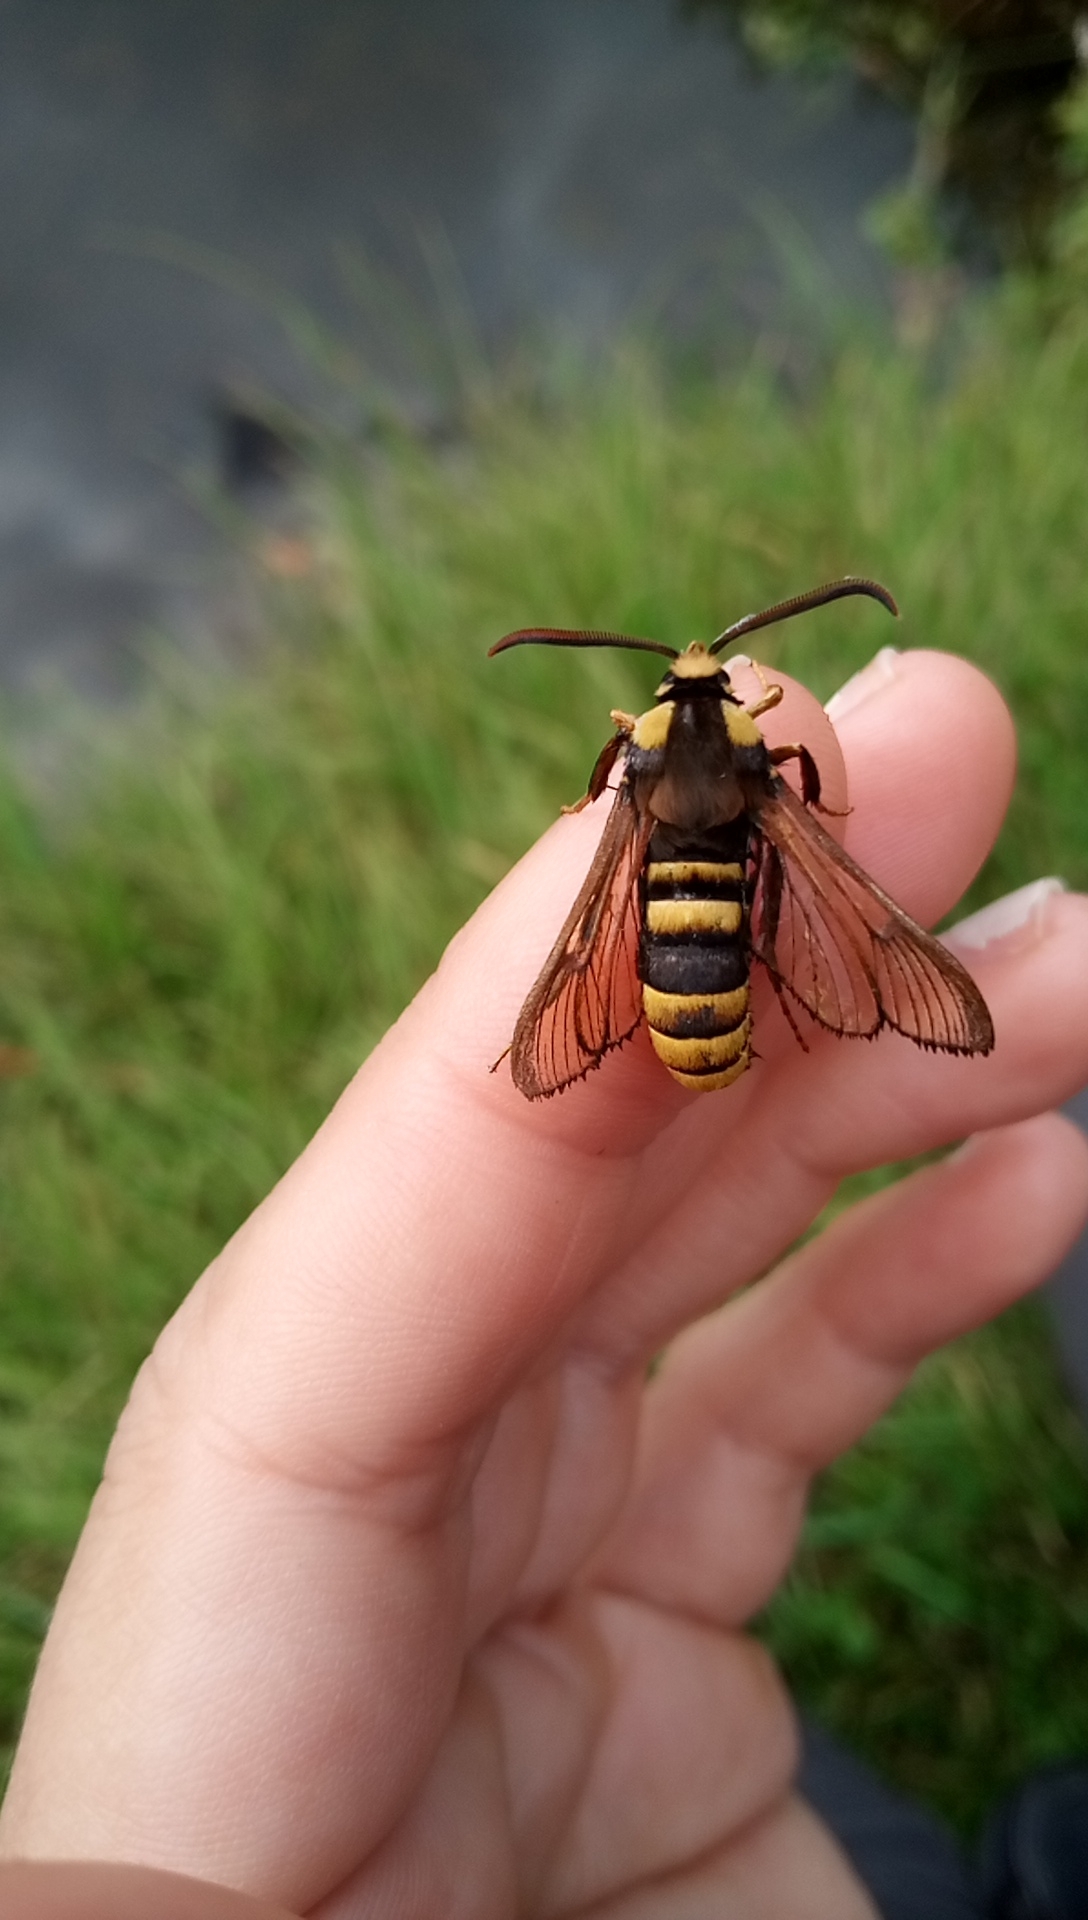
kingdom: Animalia
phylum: Arthropoda
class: Insecta
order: Lepidoptera
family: Sesiidae
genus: Sesia
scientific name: Sesia apiformis
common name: Hornet moth
